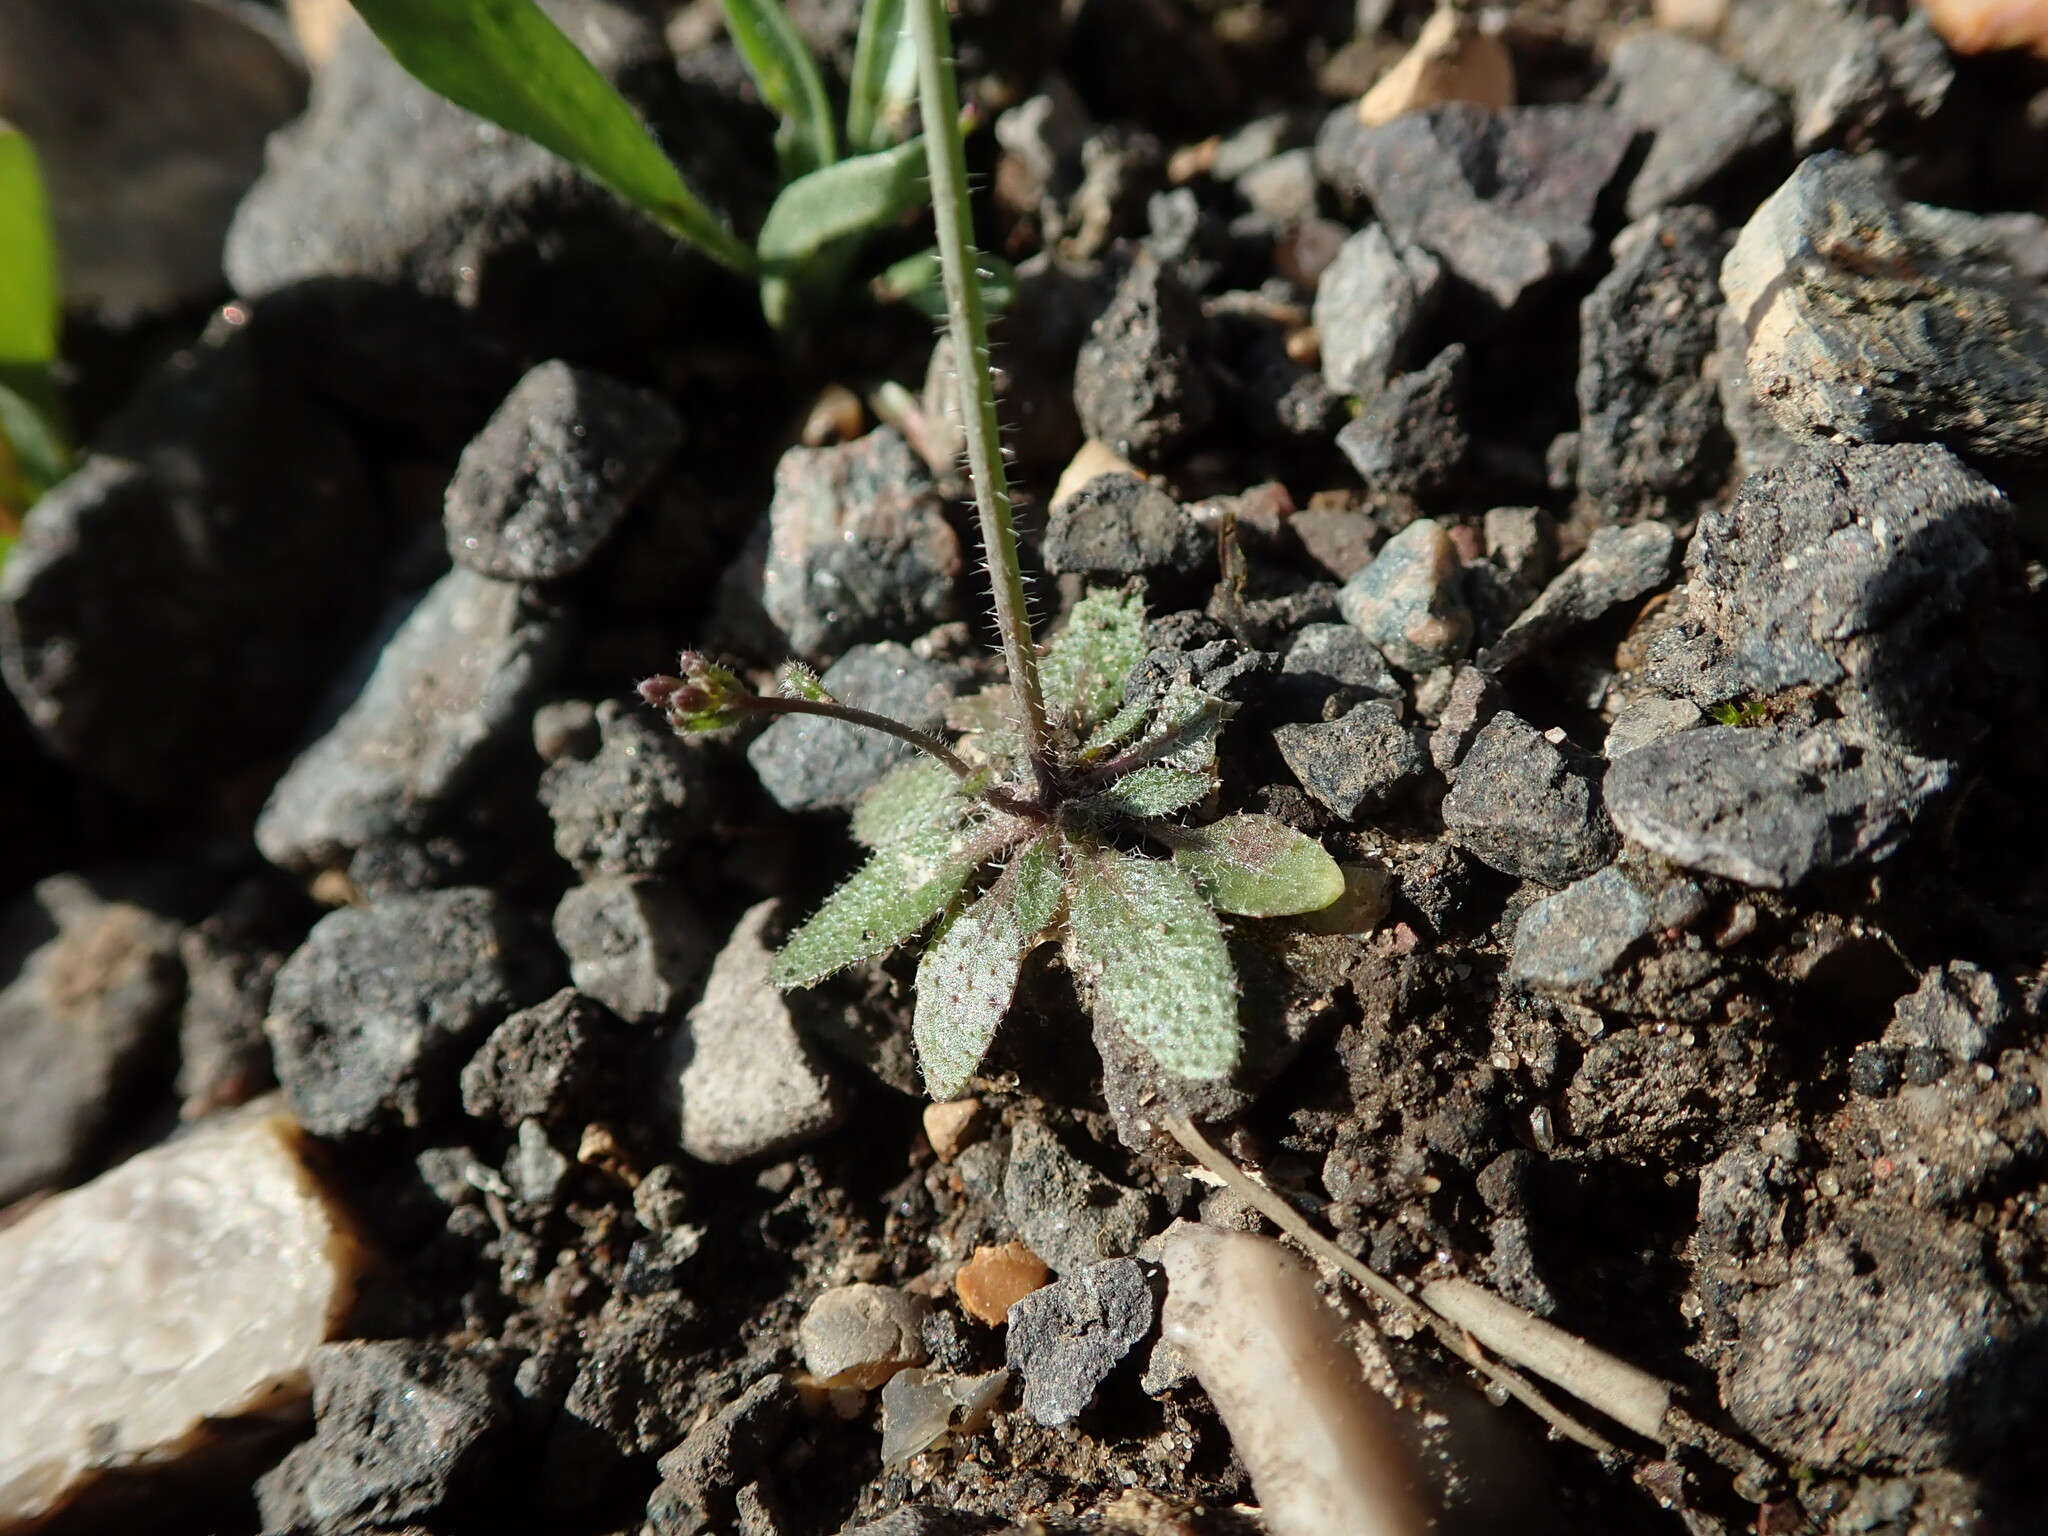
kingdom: Plantae
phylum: Tracheophyta
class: Magnoliopsida
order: Brassicales
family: Brassicaceae
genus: Arabidopsis
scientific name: Arabidopsis thaliana
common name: Thale cress
